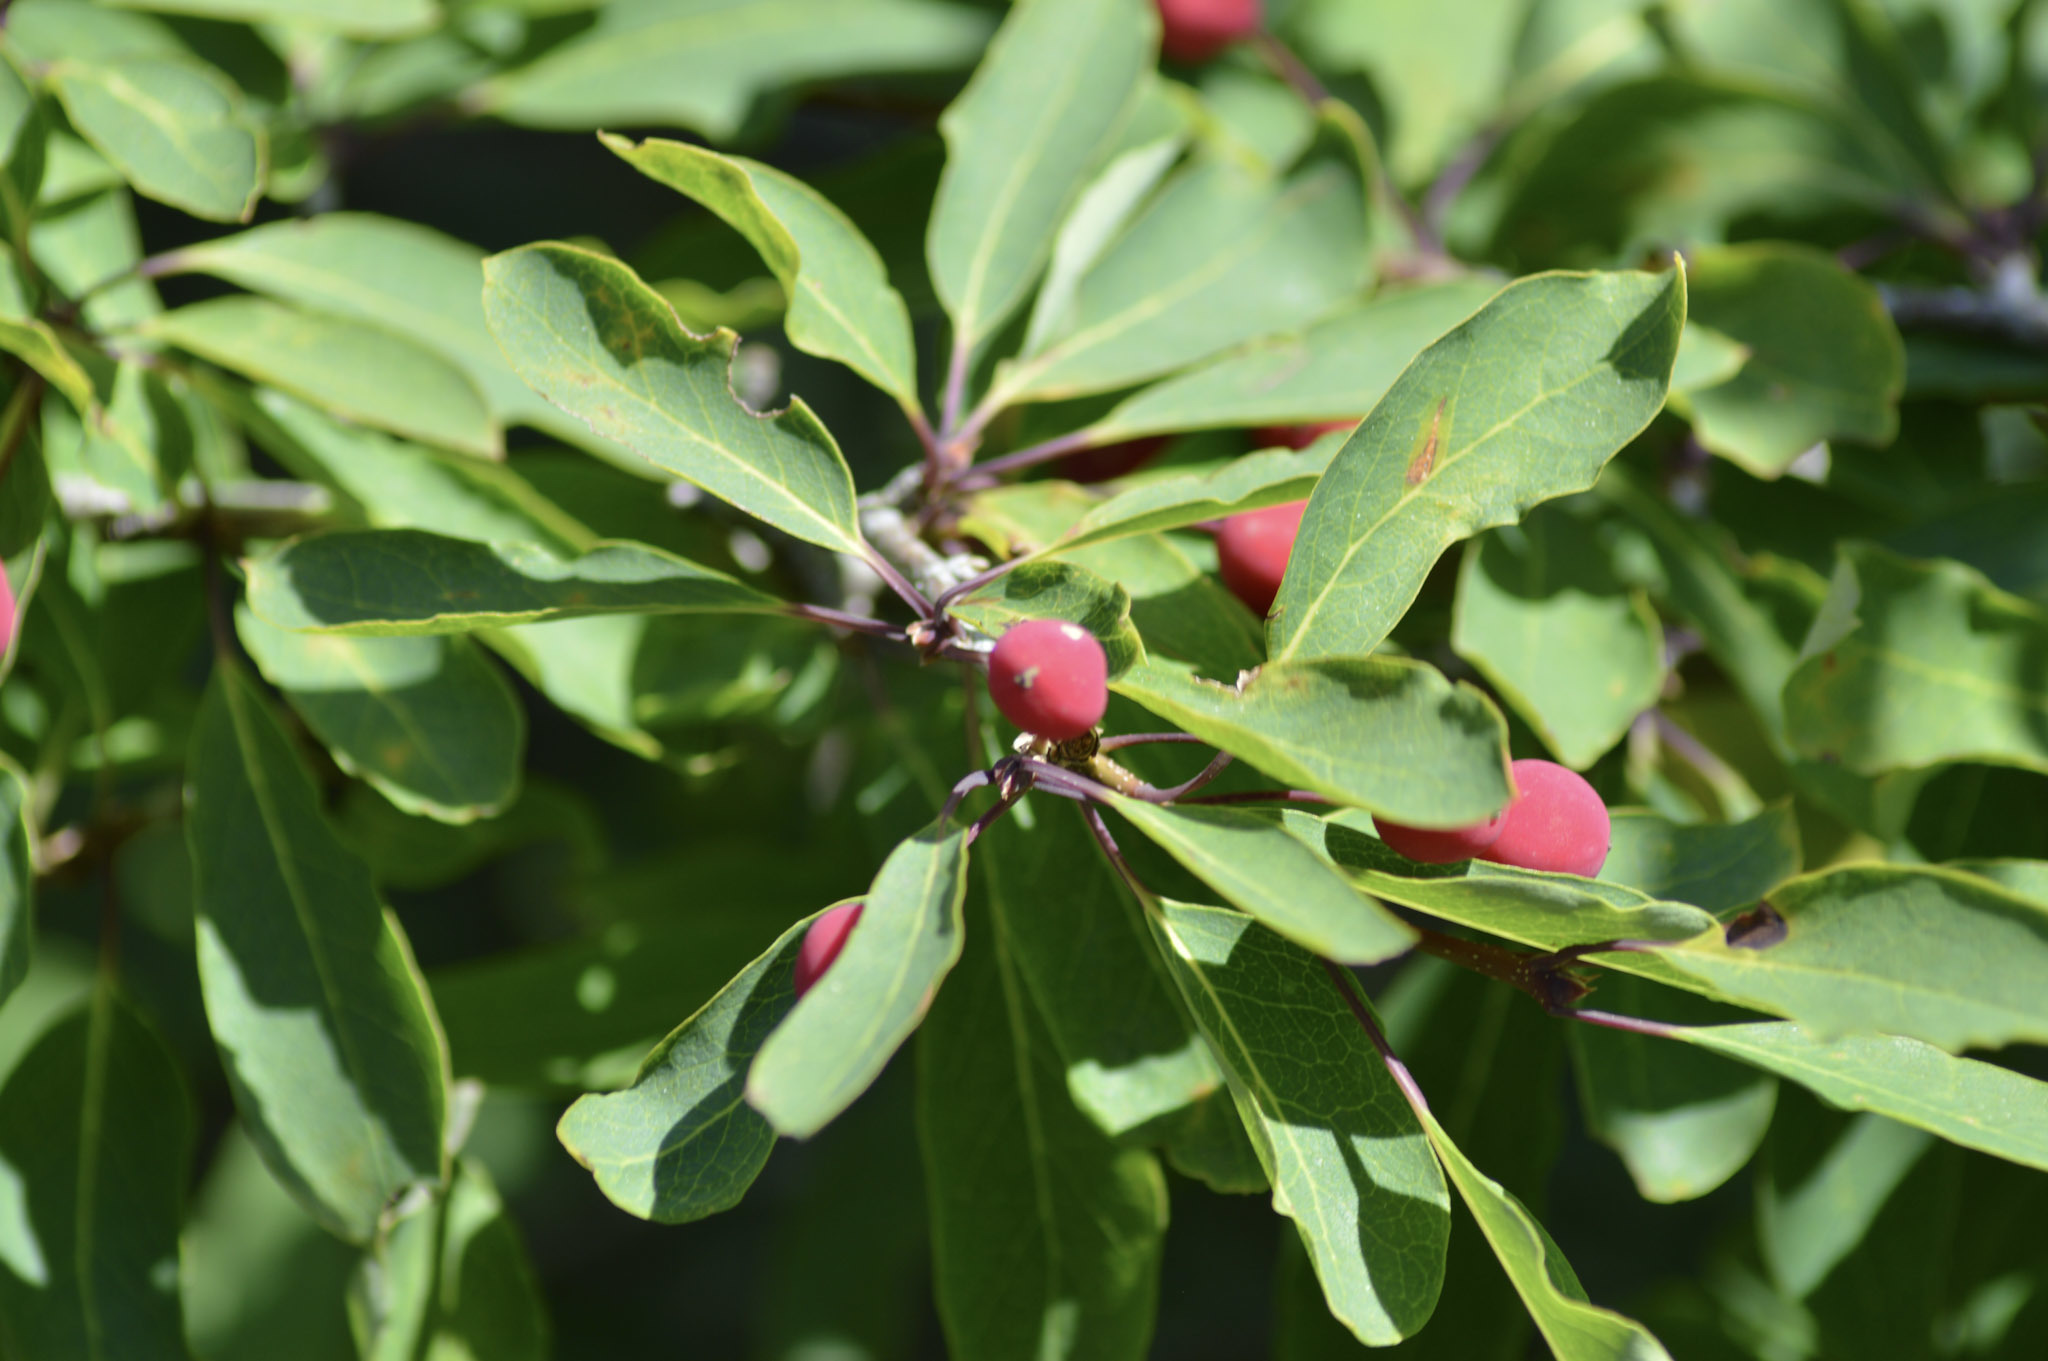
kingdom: Plantae
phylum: Tracheophyta
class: Magnoliopsida
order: Aquifoliales
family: Aquifoliaceae
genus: Ilex
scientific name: Ilex mucronata
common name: Catberry
